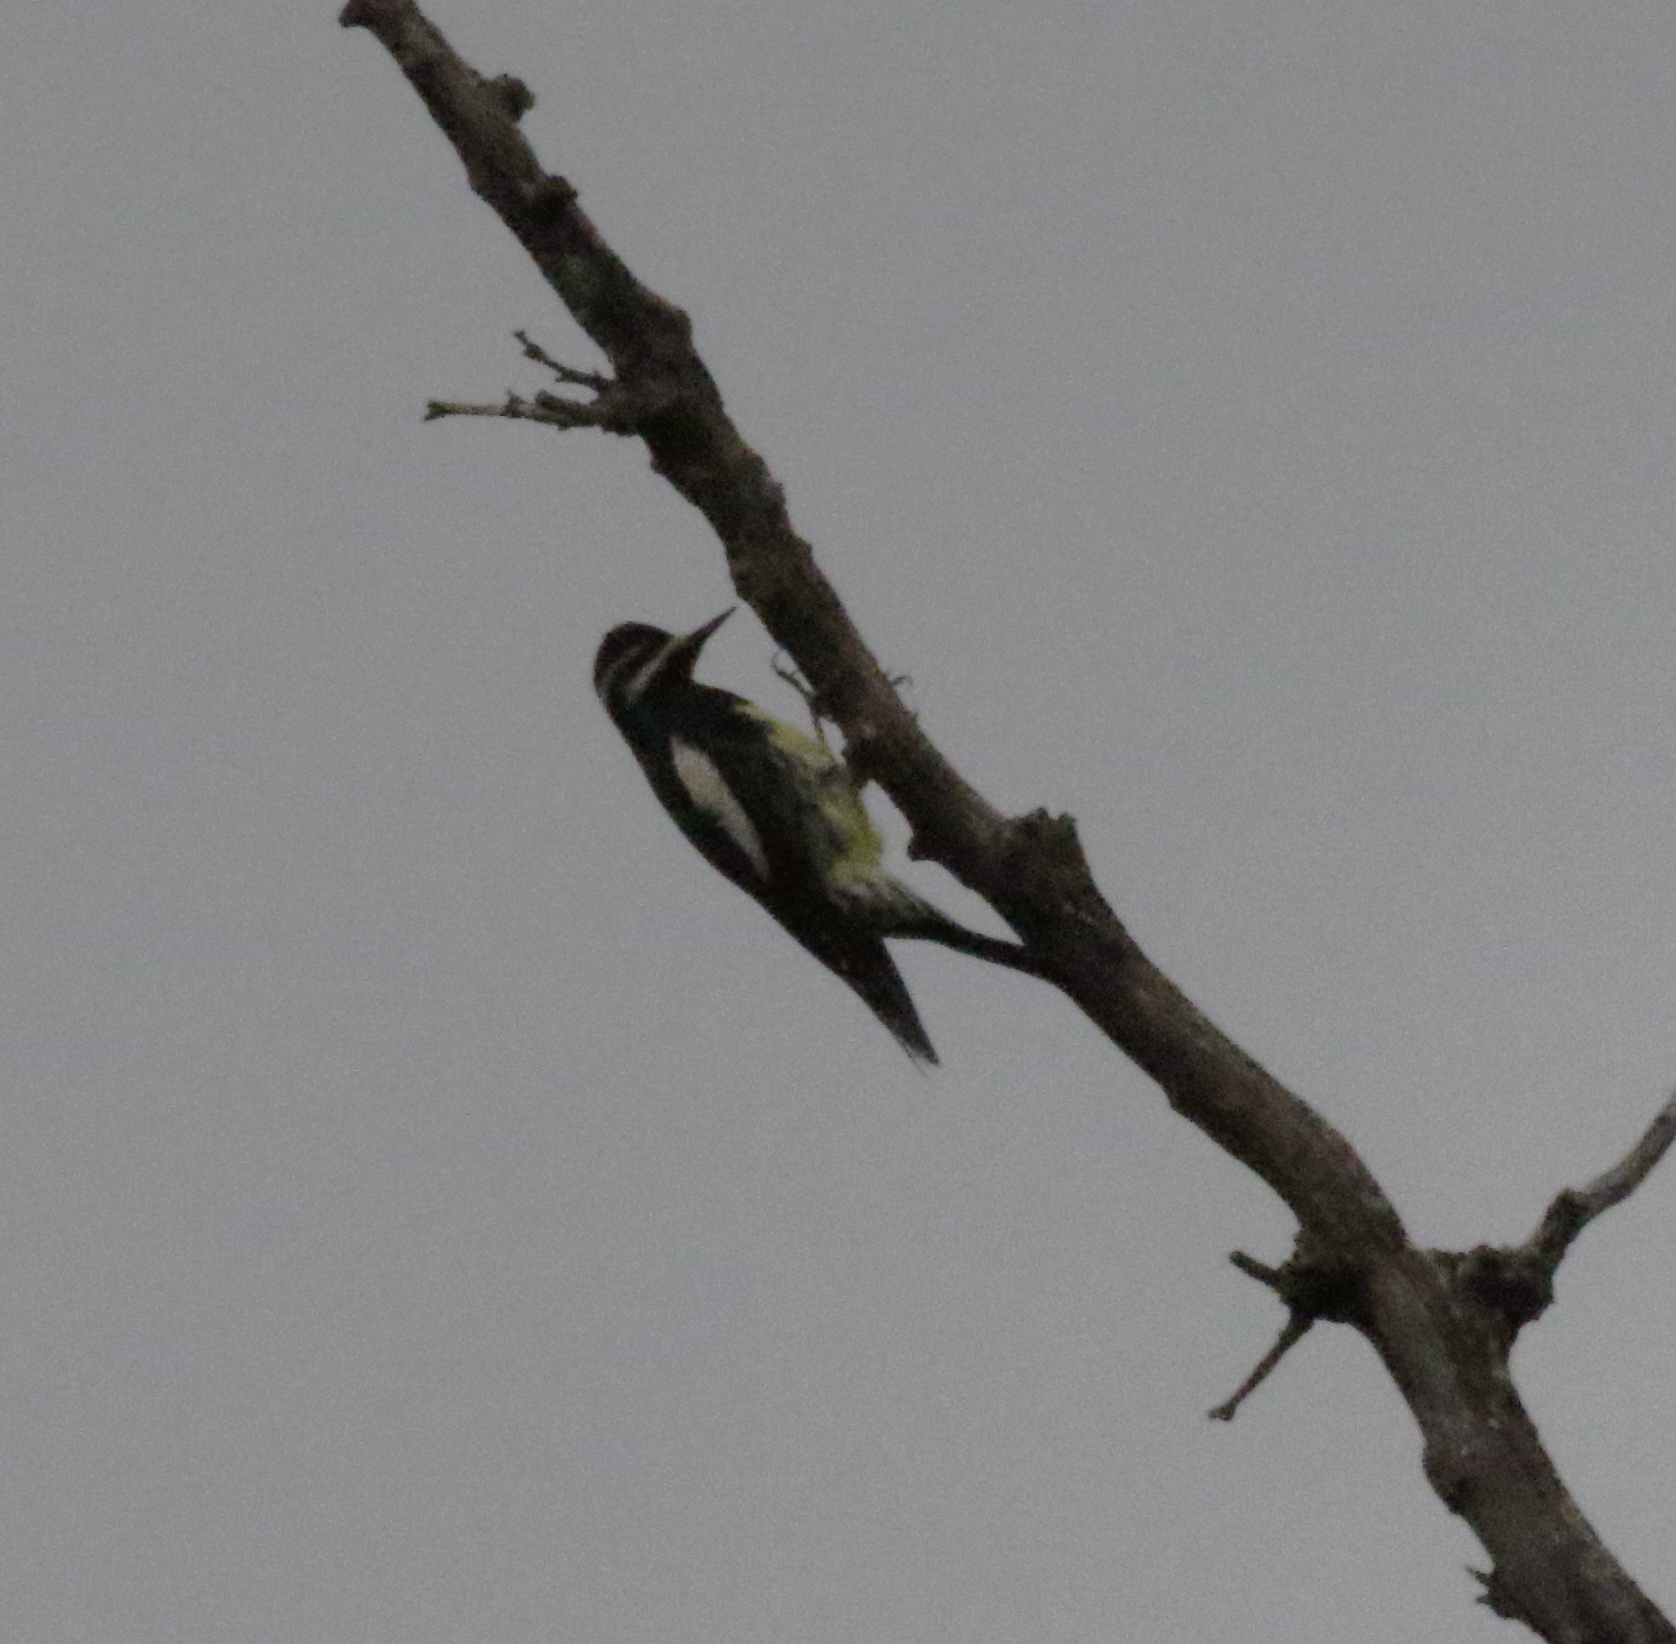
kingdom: Animalia
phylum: Chordata
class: Aves
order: Piciformes
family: Picidae
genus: Sphyrapicus
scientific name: Sphyrapicus thyroideus
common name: Williamson's sapsucker
